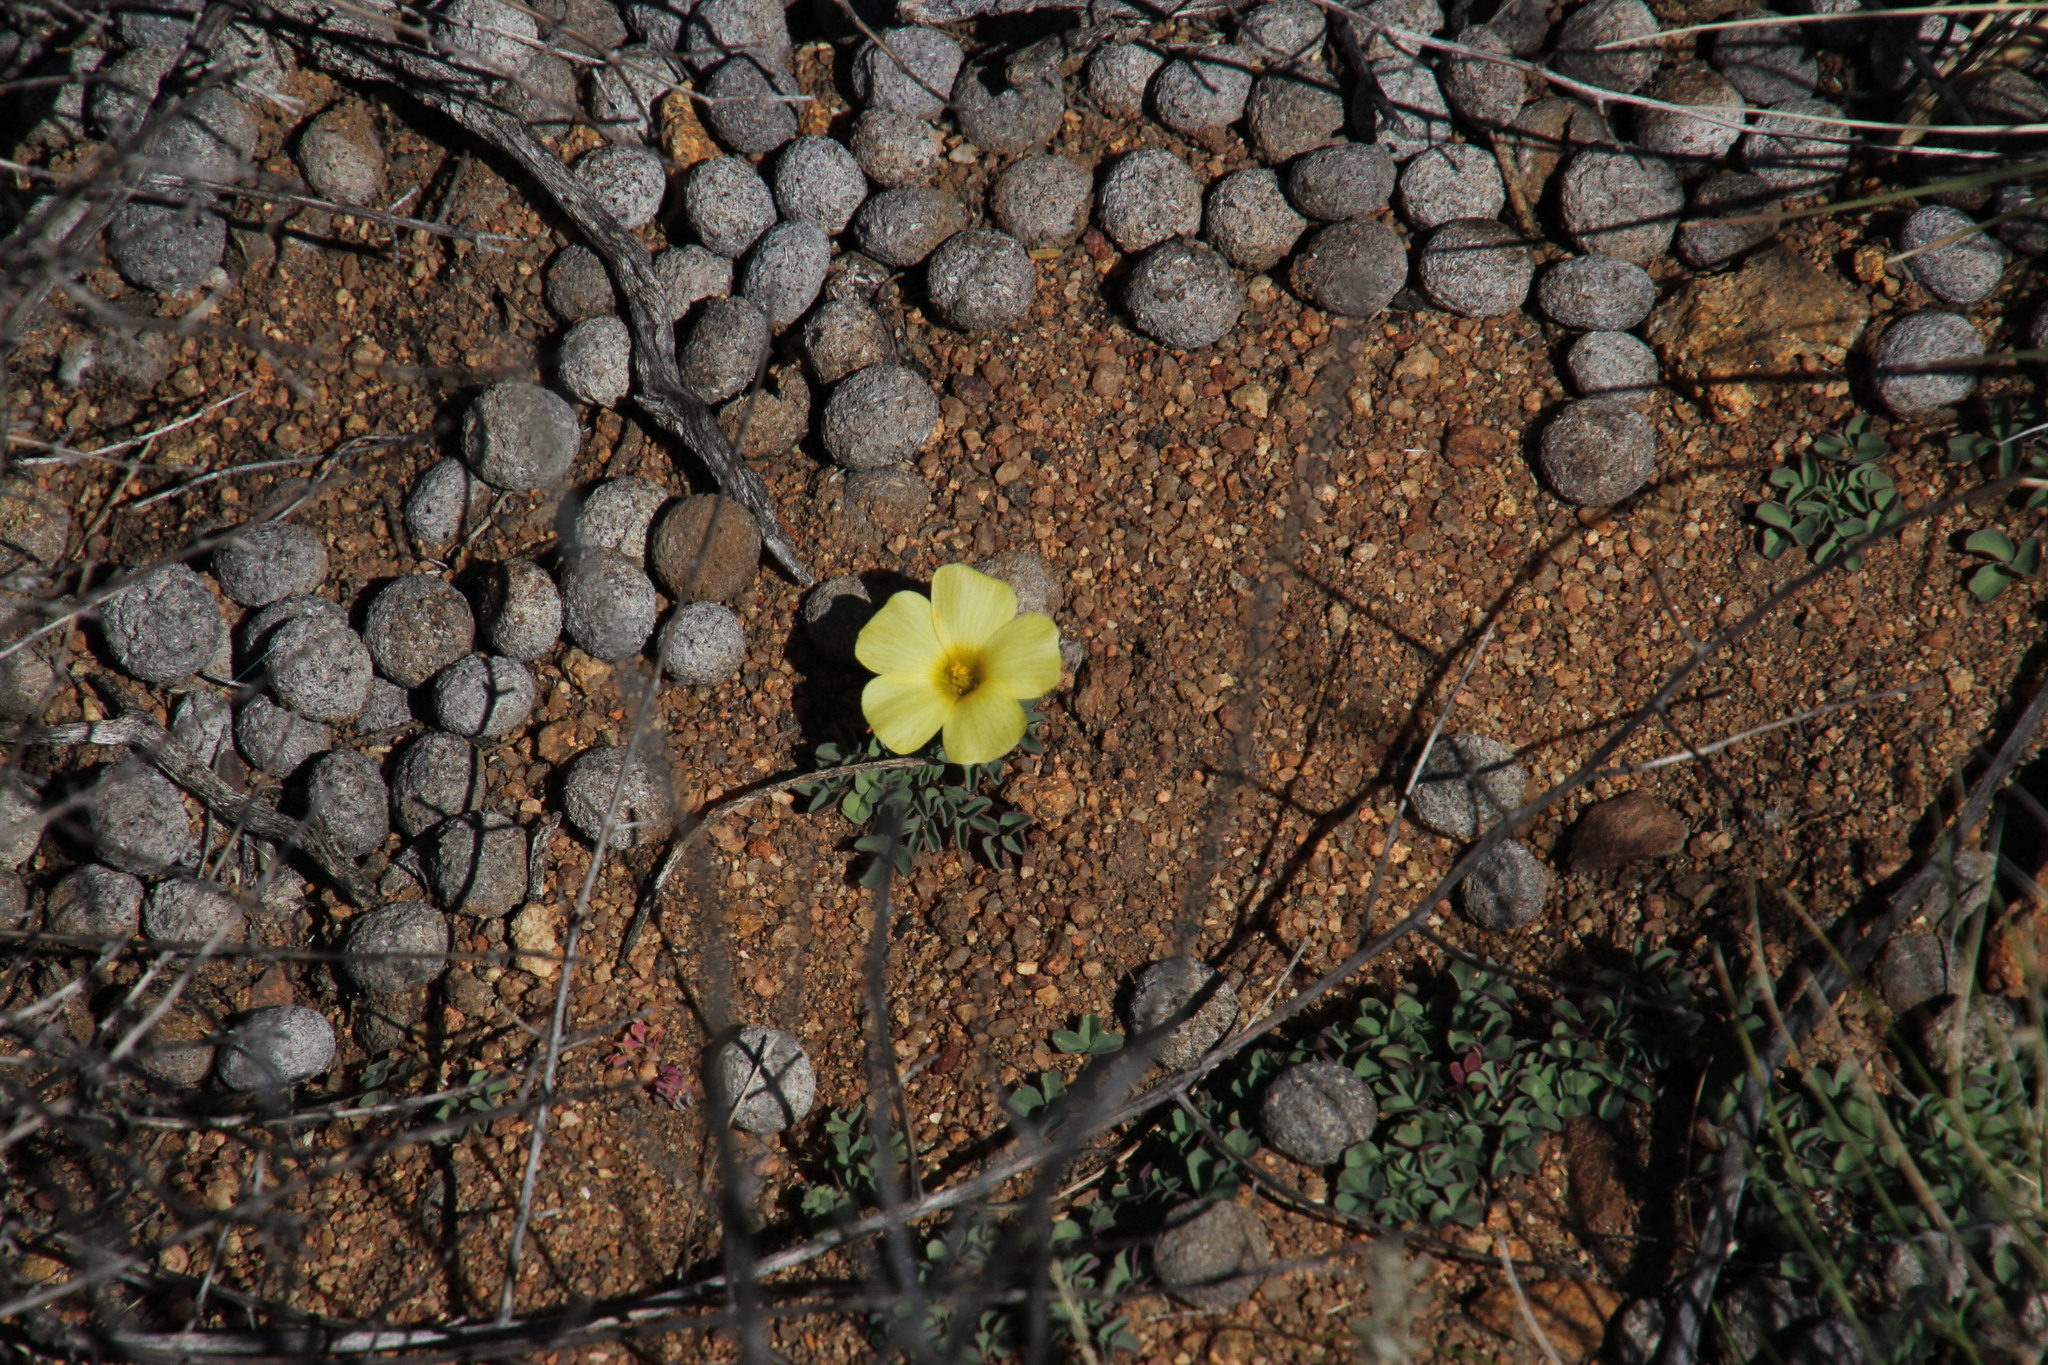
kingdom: Plantae
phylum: Tracheophyta
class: Magnoliopsida
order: Oxalidales
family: Oxalidaceae
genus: Oxalis
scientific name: Oxalis obtusa
